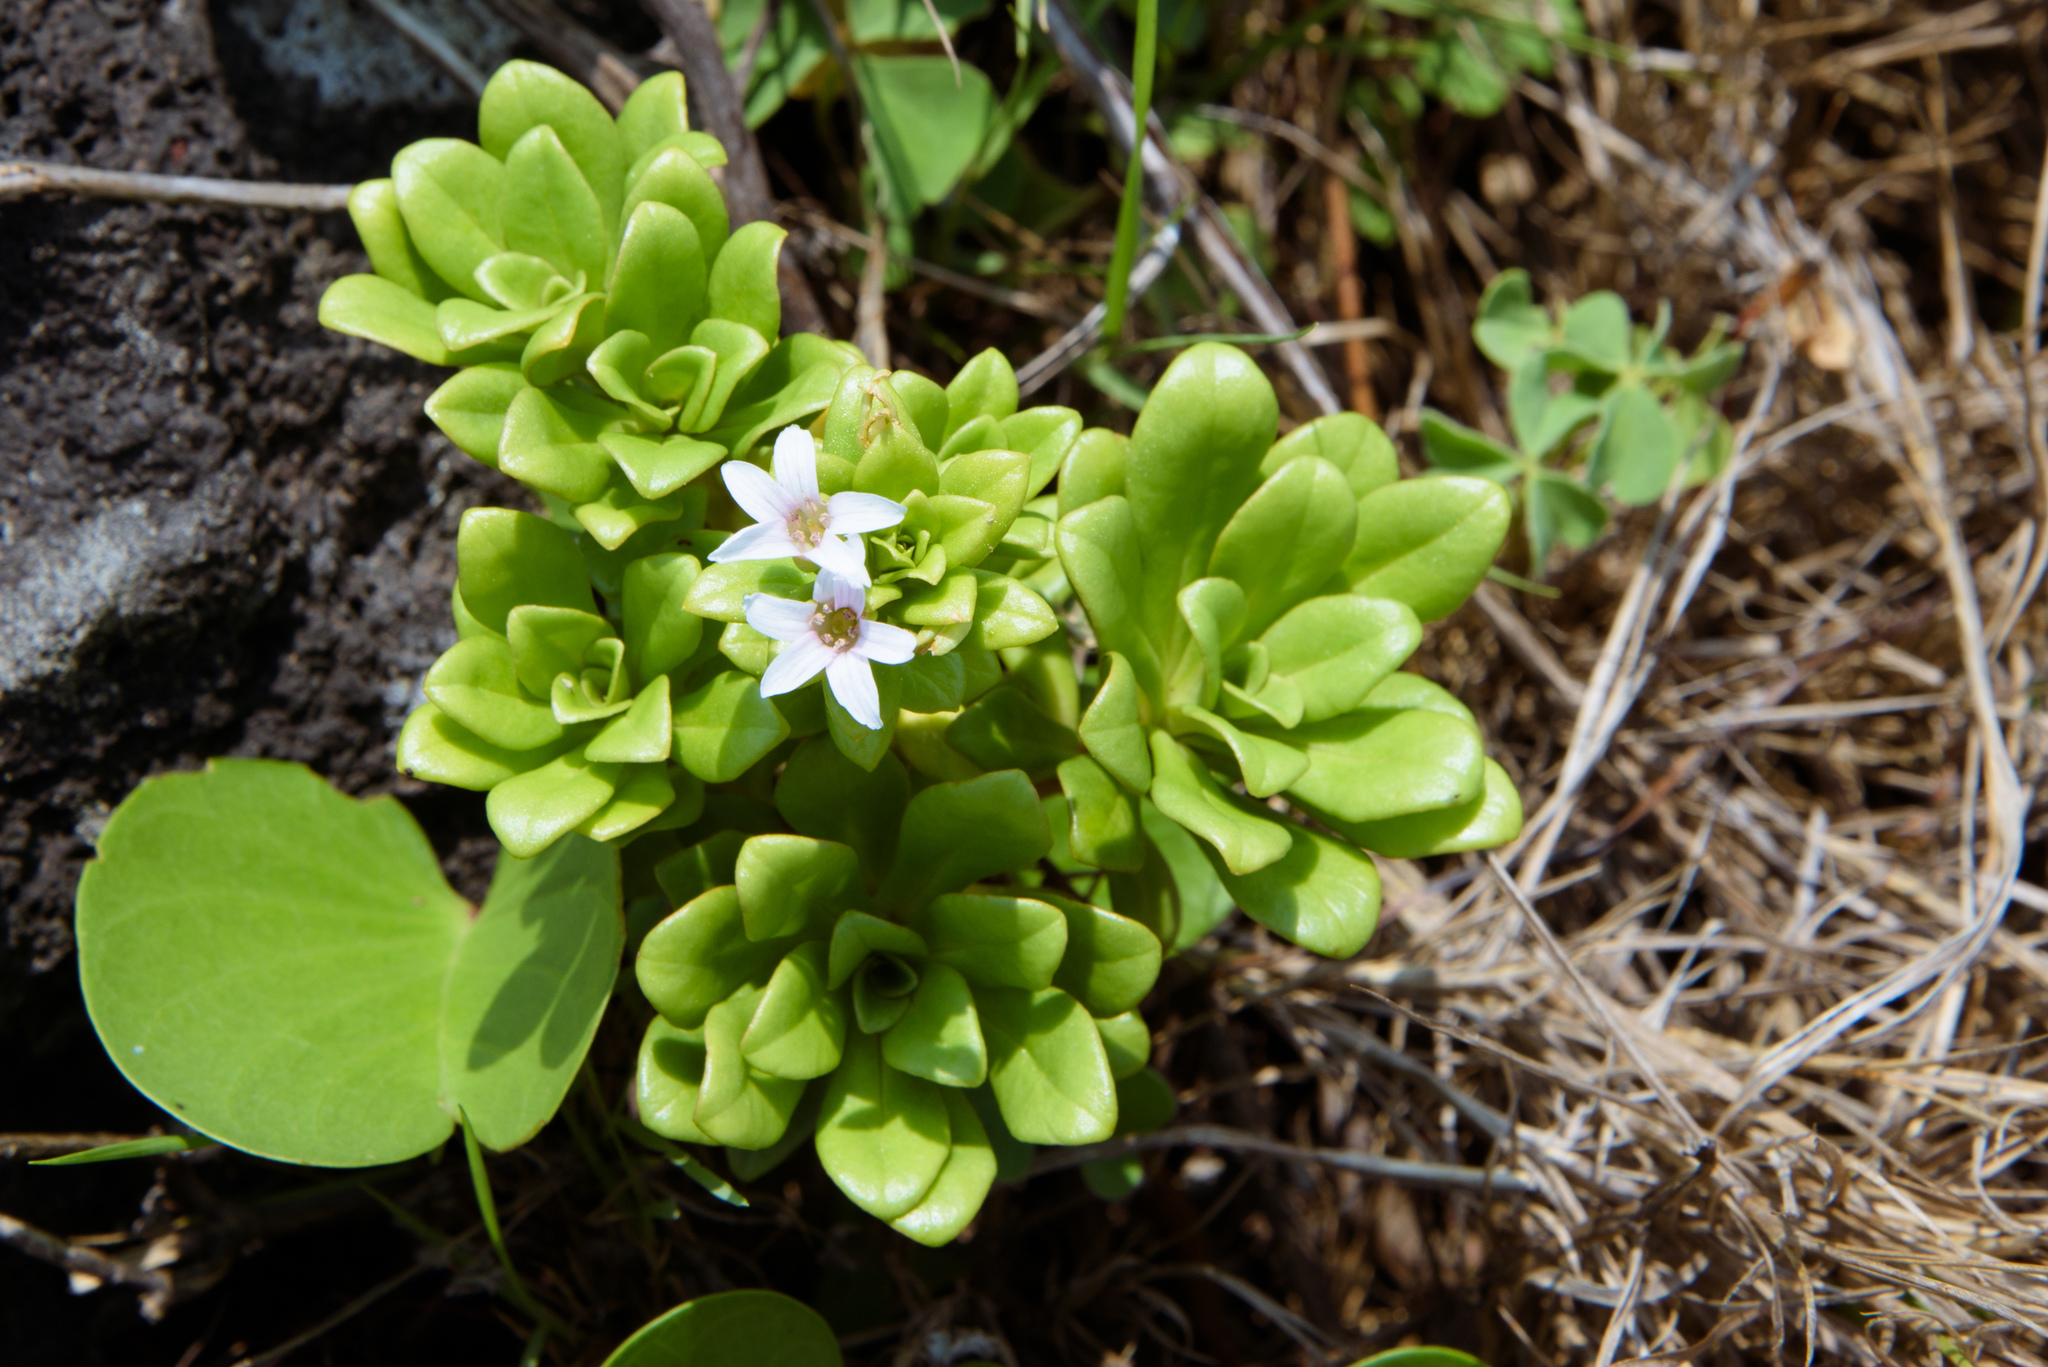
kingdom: Plantae
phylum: Tracheophyta
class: Magnoliopsida
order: Ericales
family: Primulaceae
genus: Lysimachia
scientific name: Lysimachia mauritiana
